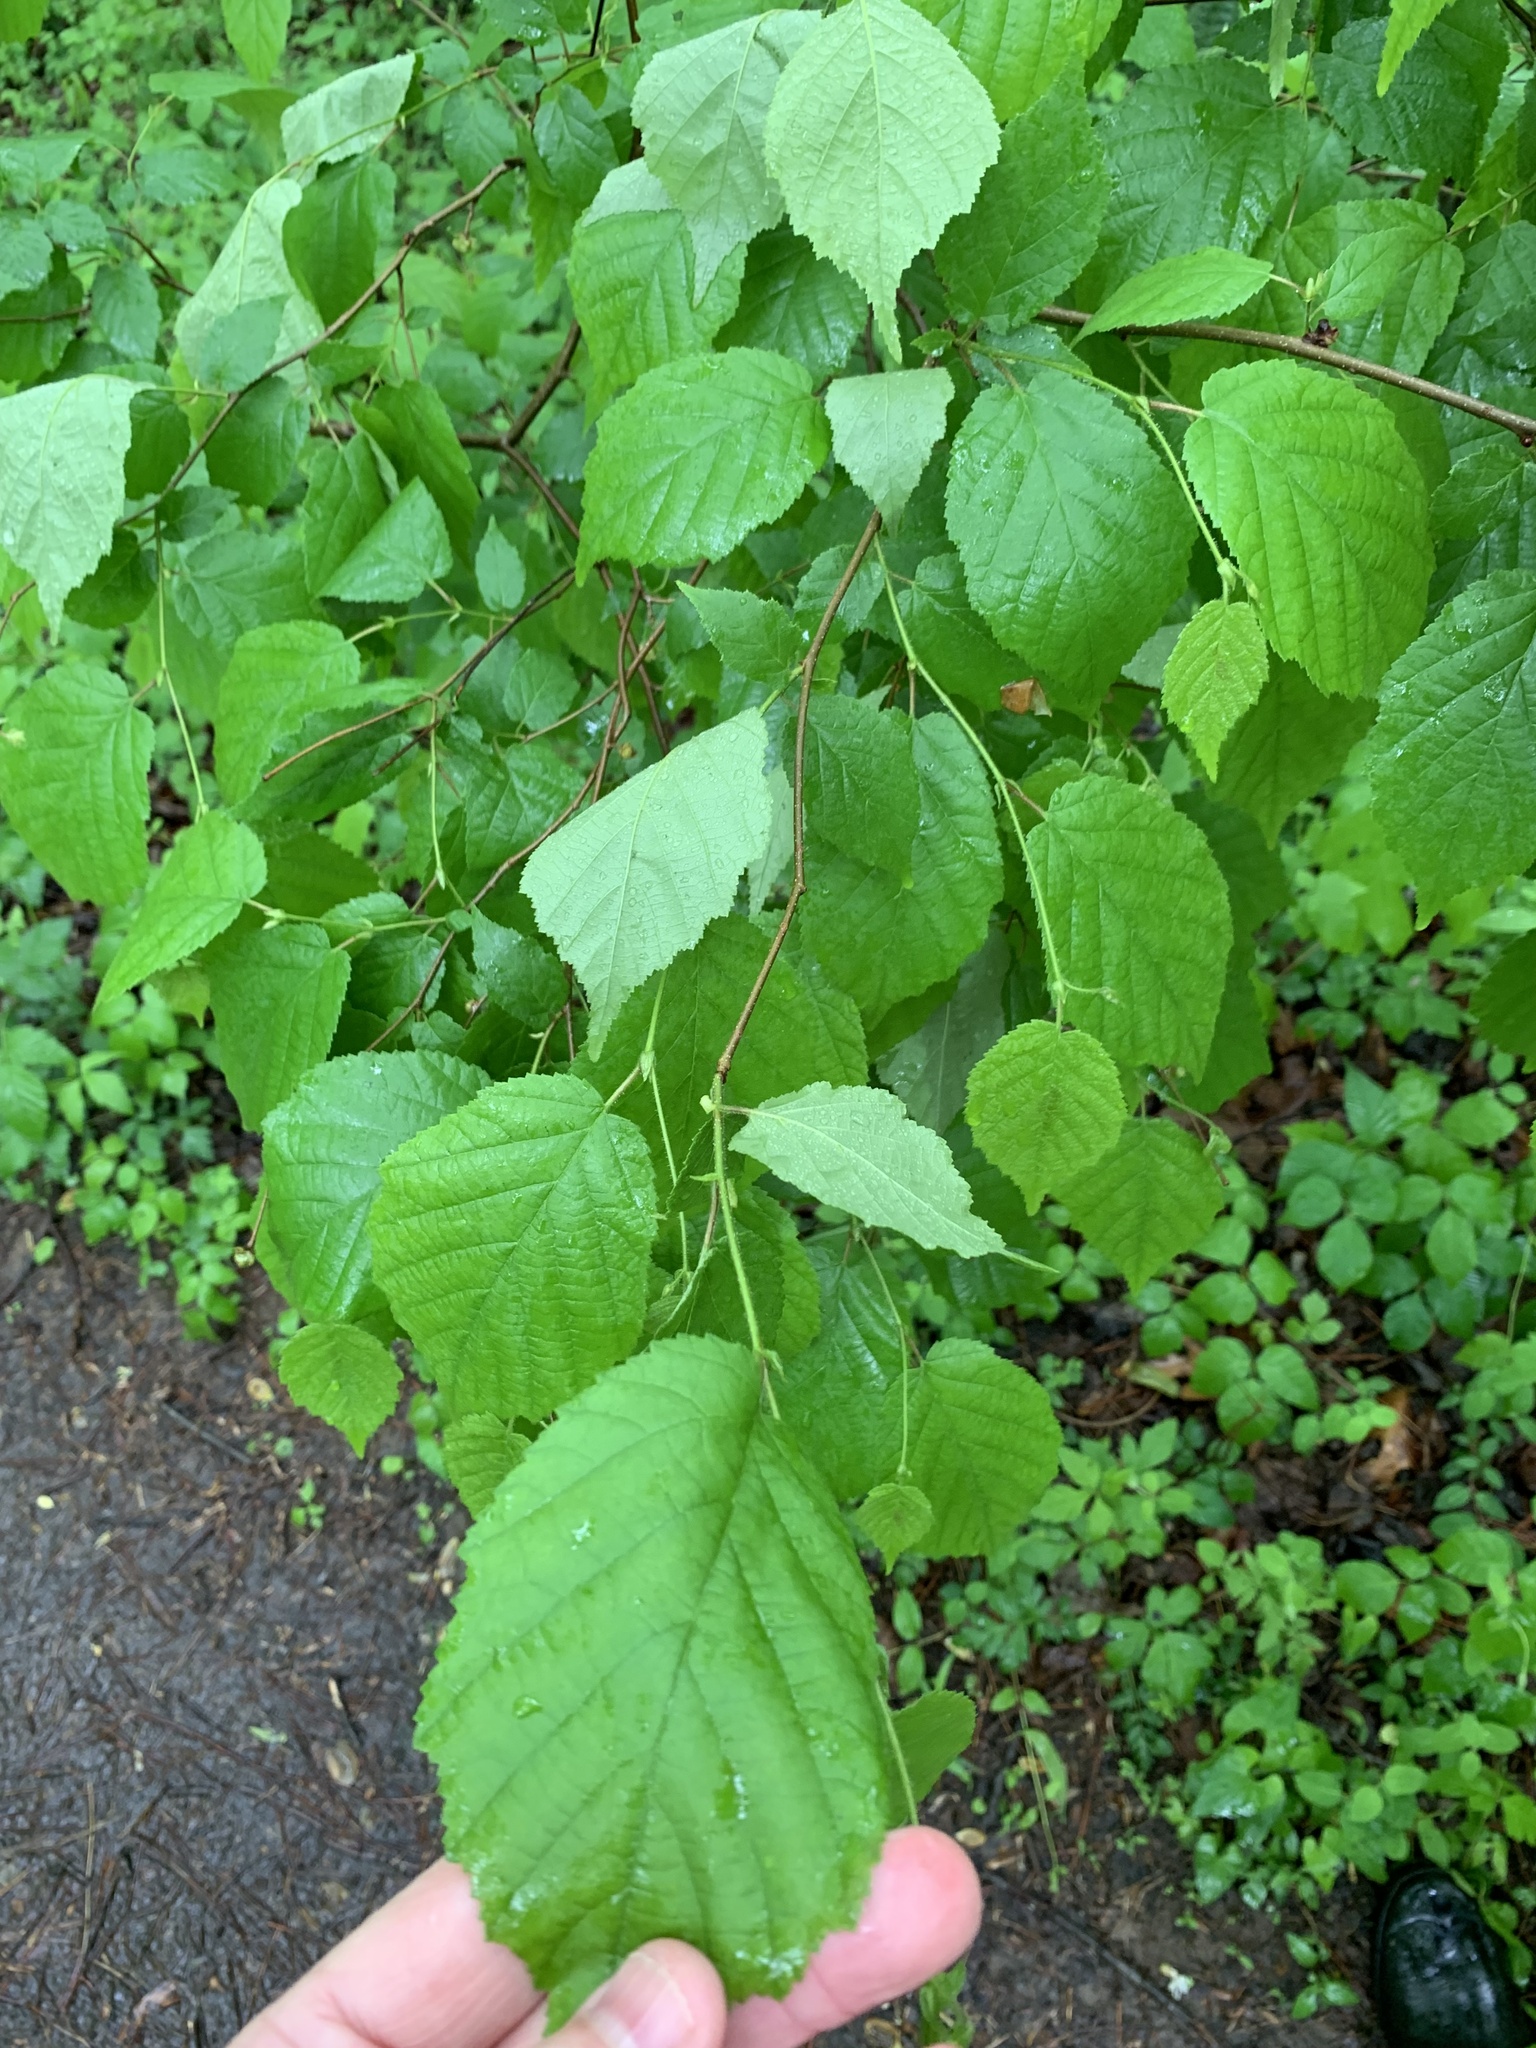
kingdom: Plantae
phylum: Tracheophyta
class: Magnoliopsida
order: Fagales
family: Betulaceae
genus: Corylus
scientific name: Corylus americana
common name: American hazel
